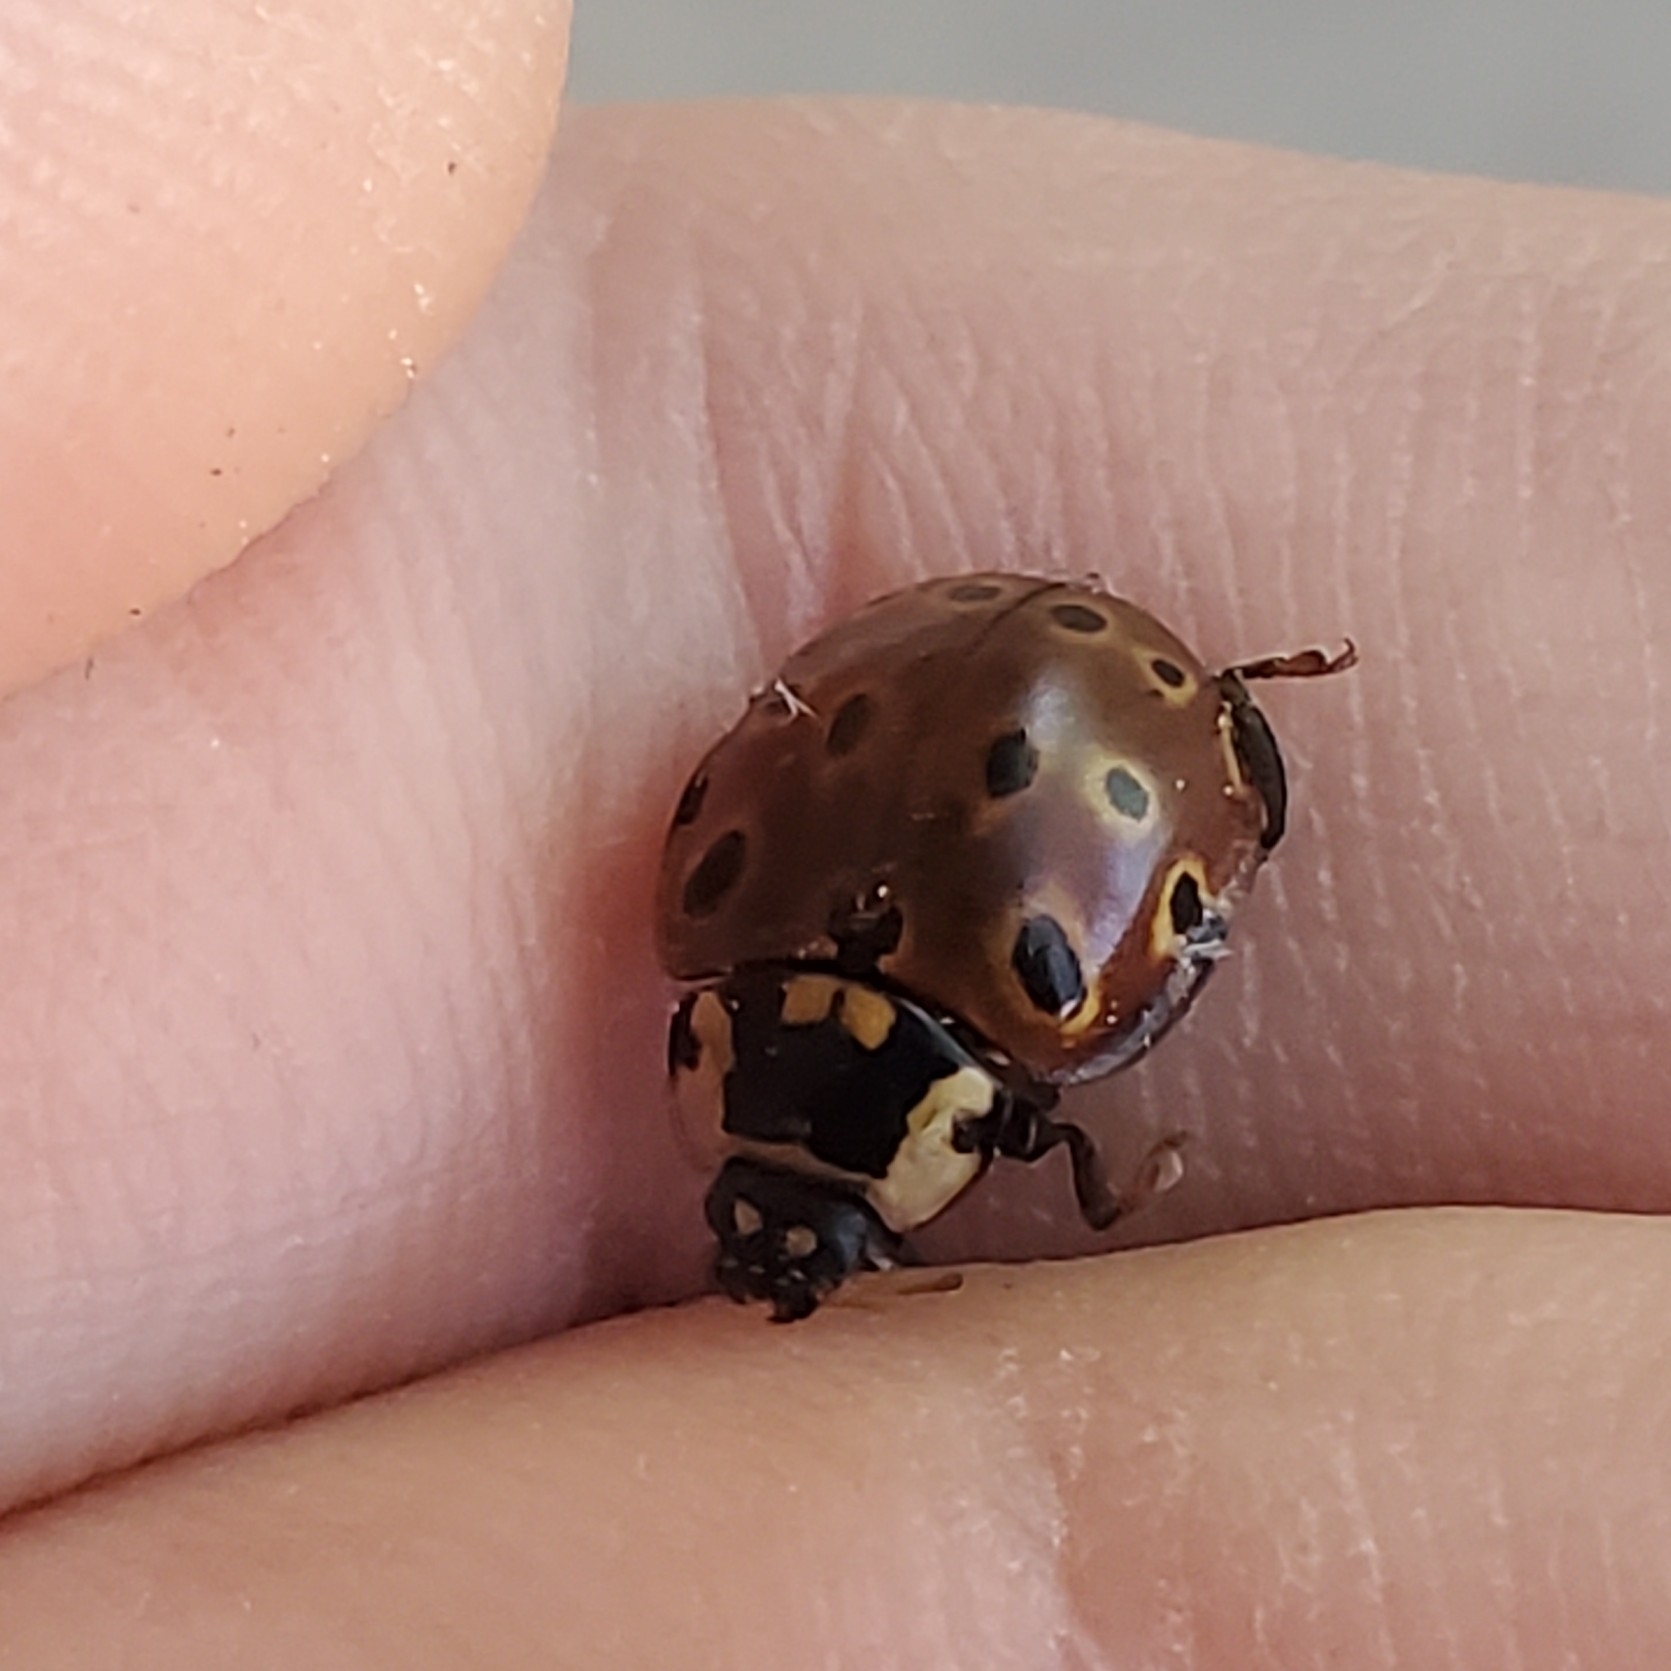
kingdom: Animalia
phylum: Arthropoda
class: Insecta
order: Coleoptera
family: Coccinellidae
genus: Anatis
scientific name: Anatis mali
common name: Eye-spotted lady beetle
